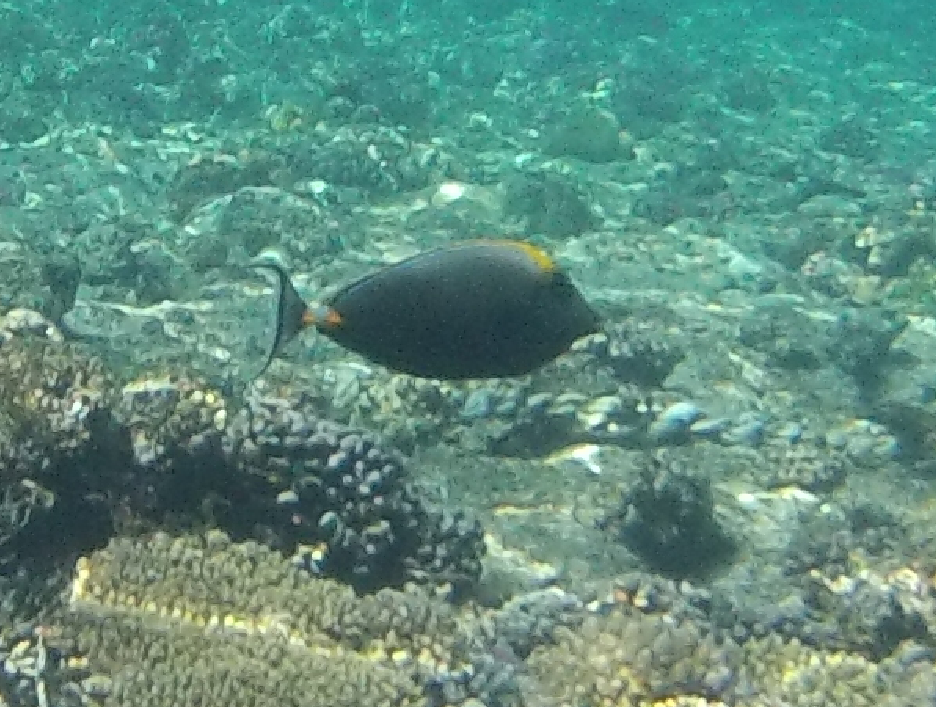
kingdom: Animalia
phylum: Chordata
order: Perciformes
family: Acanthuridae
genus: Naso
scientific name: Naso elegans
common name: Orangespine unicornfish
